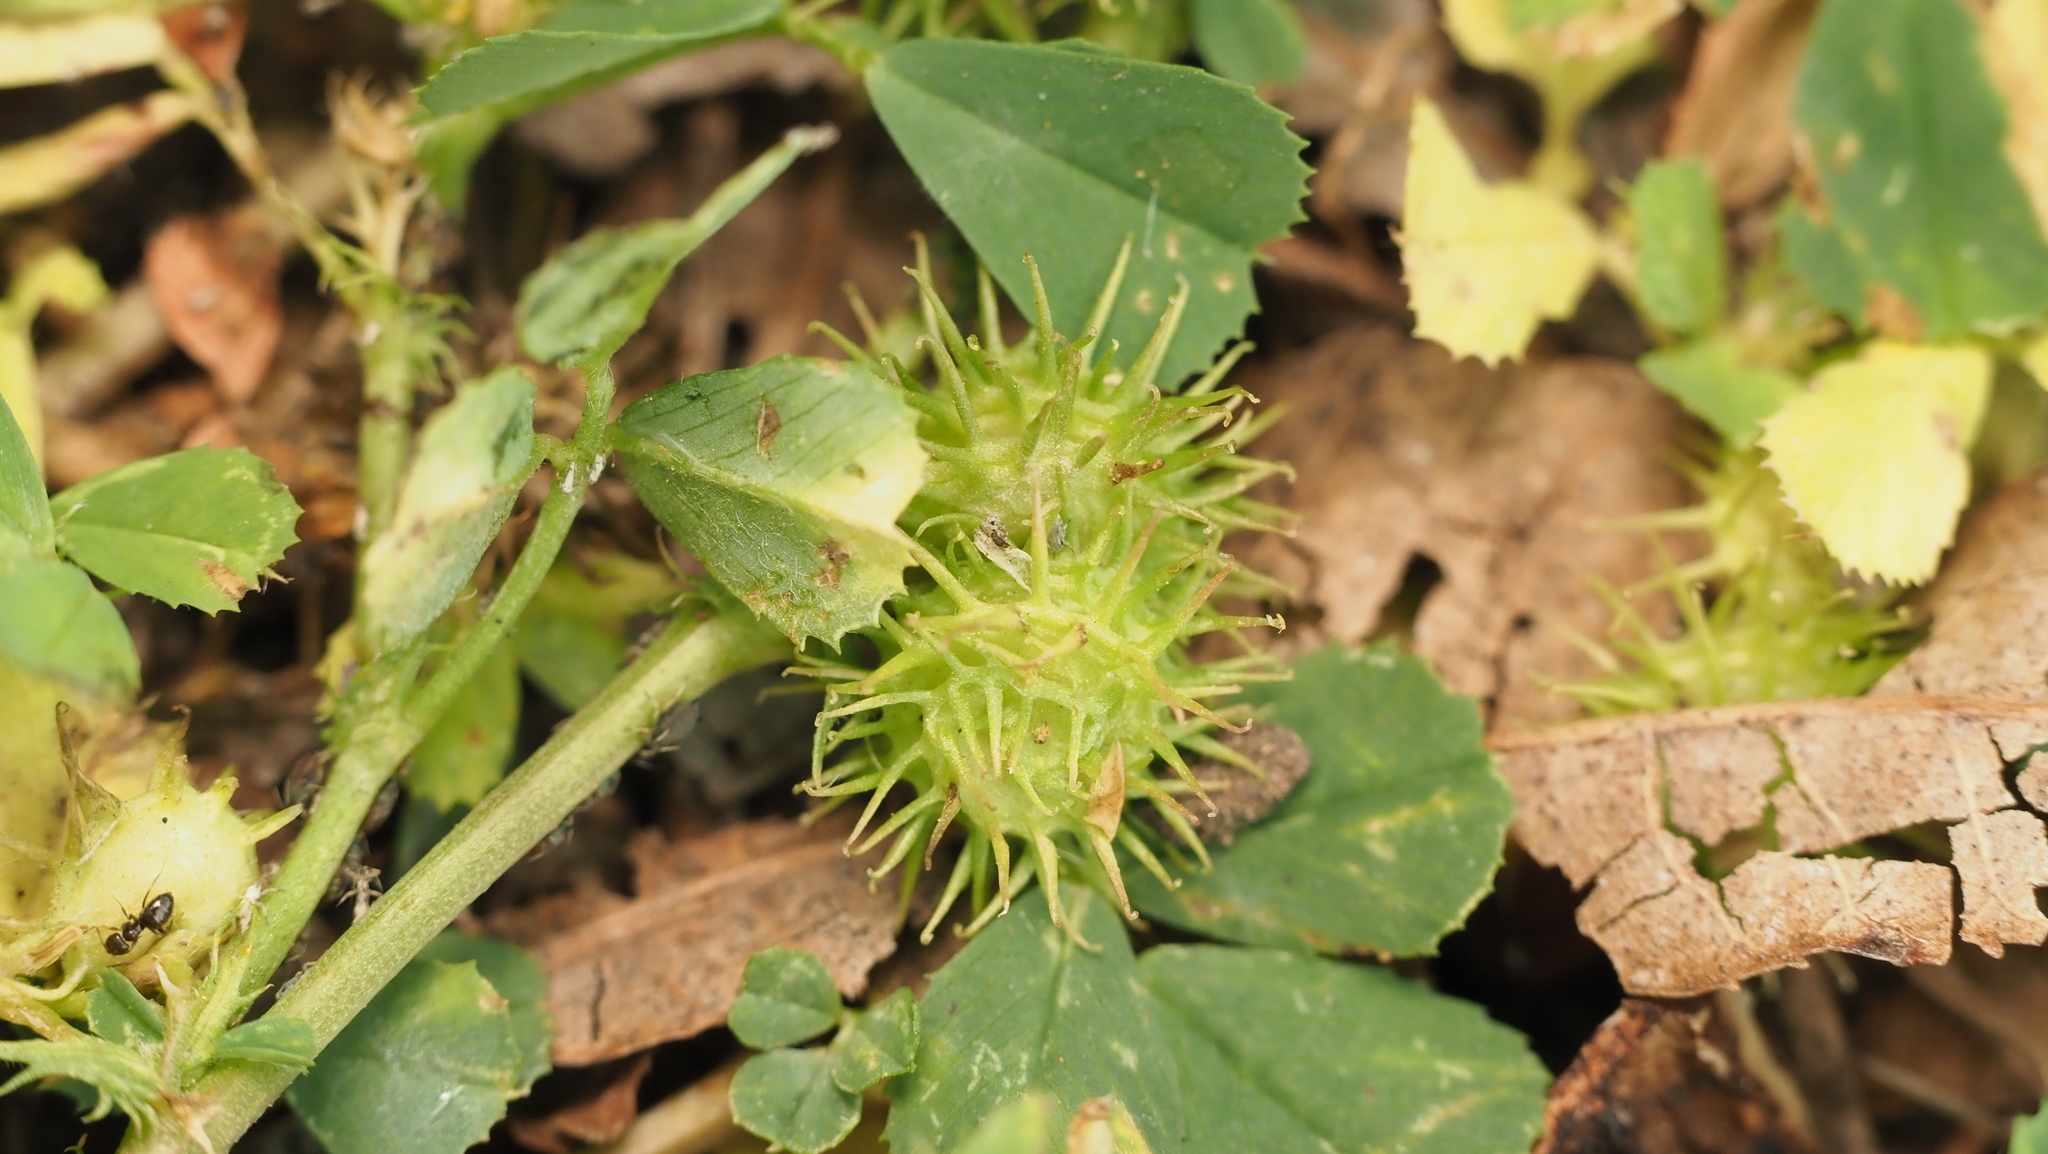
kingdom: Plantae
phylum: Tracheophyta
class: Magnoliopsida
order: Fabales
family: Fabaceae
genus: Medicago
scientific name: Medicago polymorpha
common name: Burclover
